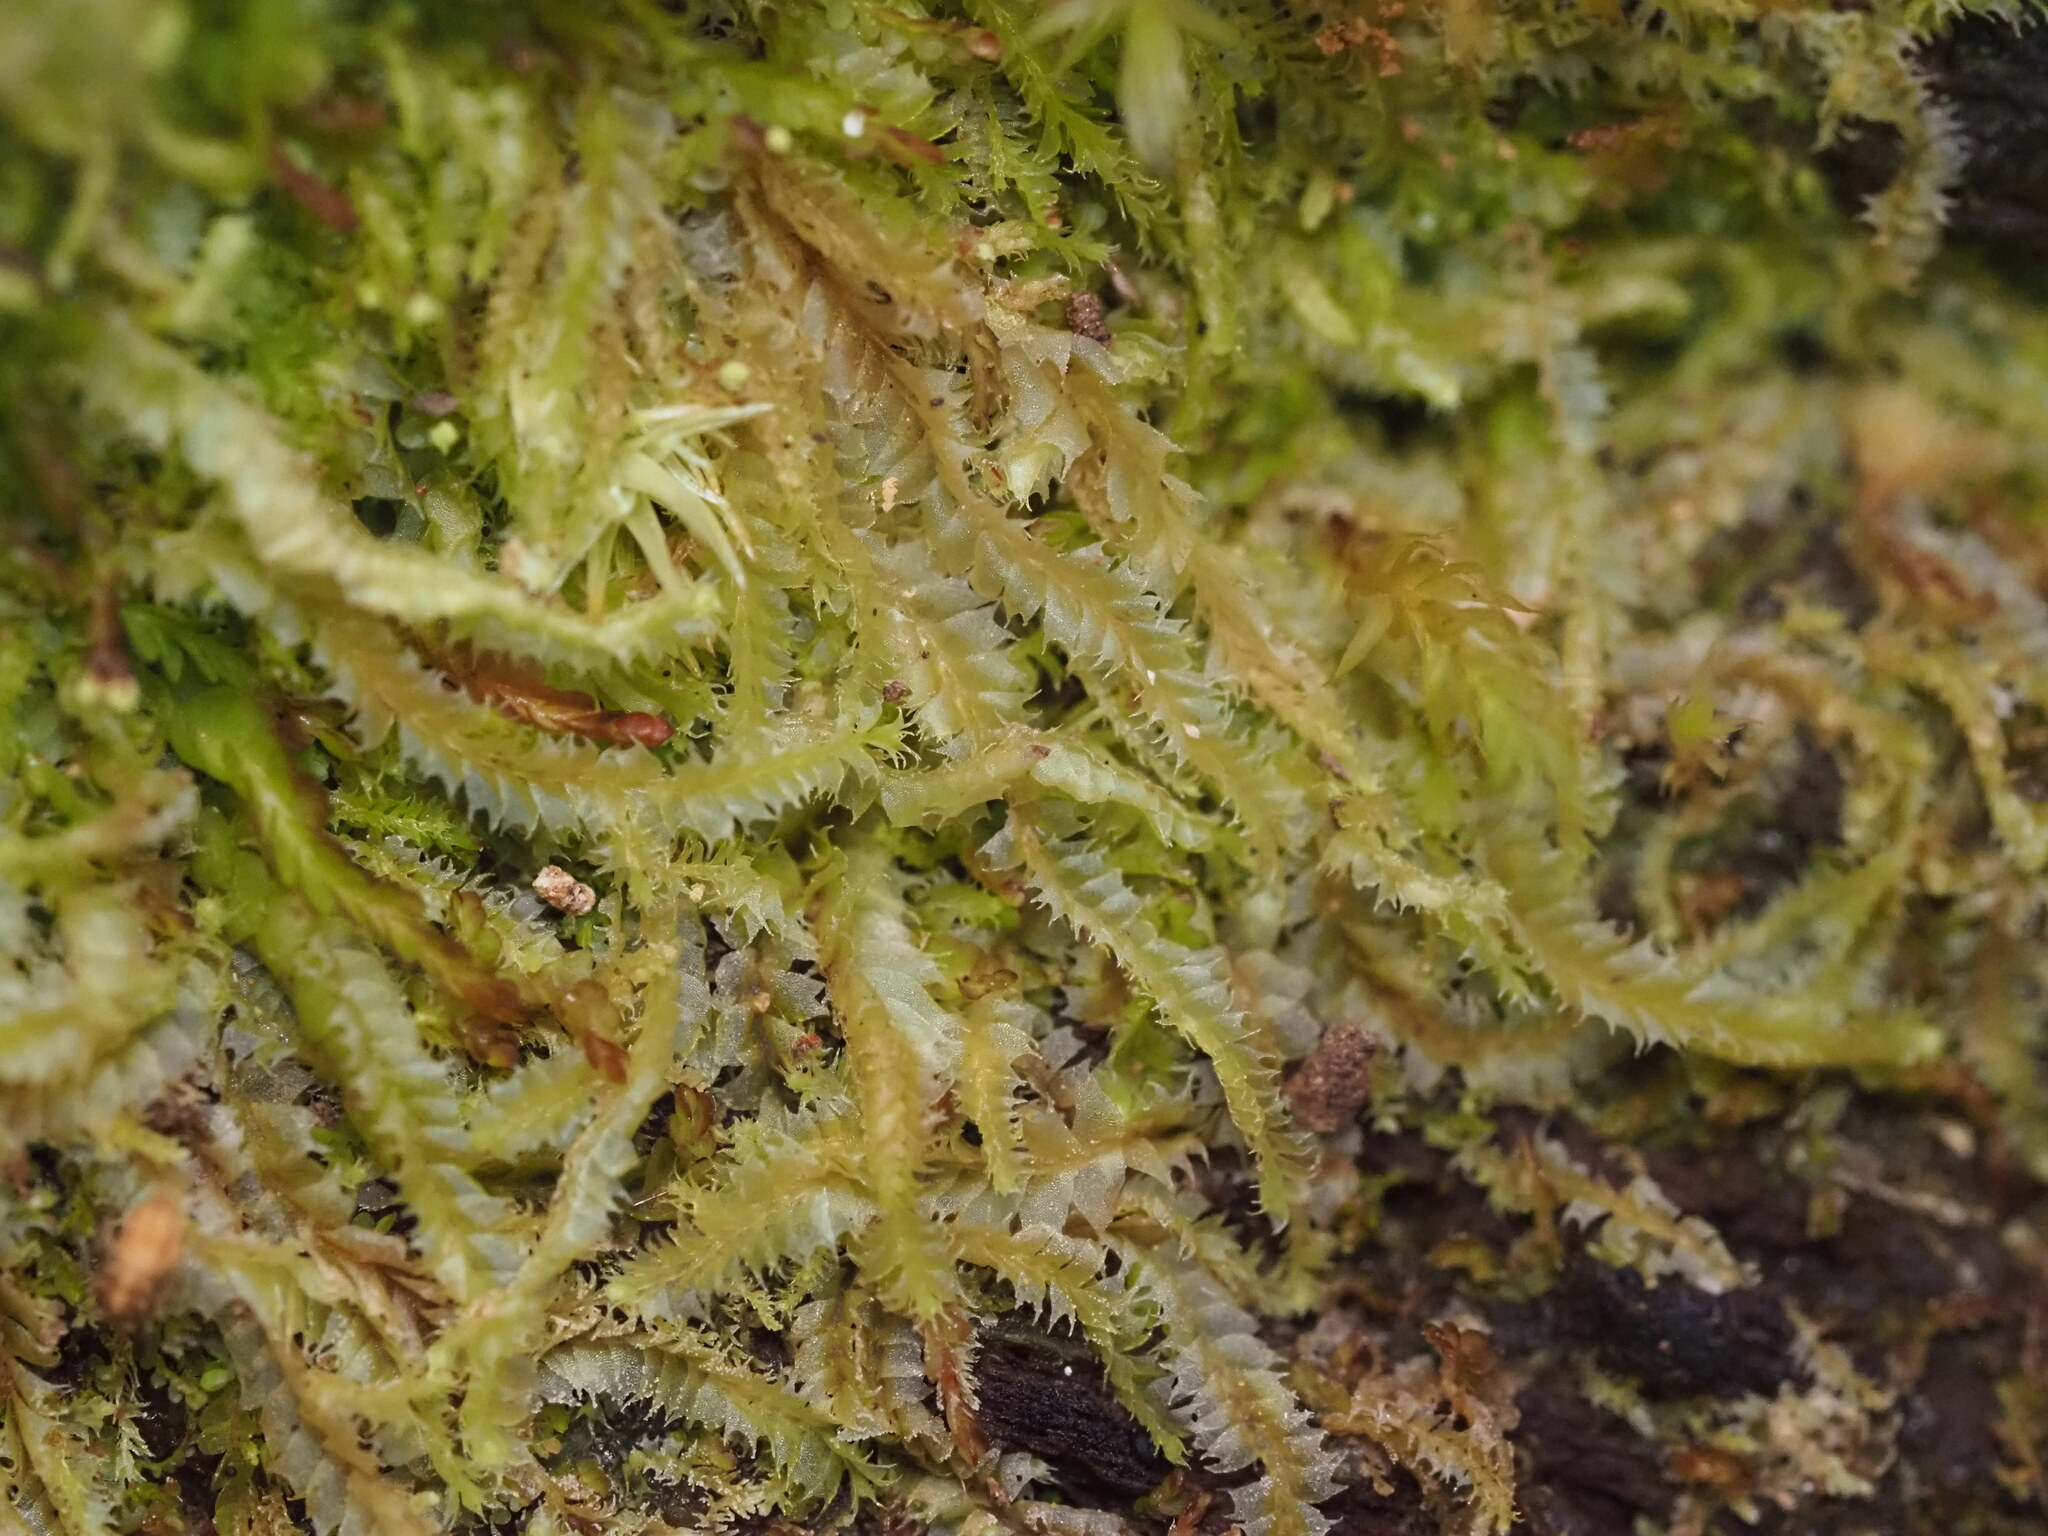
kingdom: Plantae
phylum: Marchantiophyta
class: Jungermanniopsida
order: Jungermanniales
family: Lophocoleaceae
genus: Lophocolea
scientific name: Lophocolea hawaica
